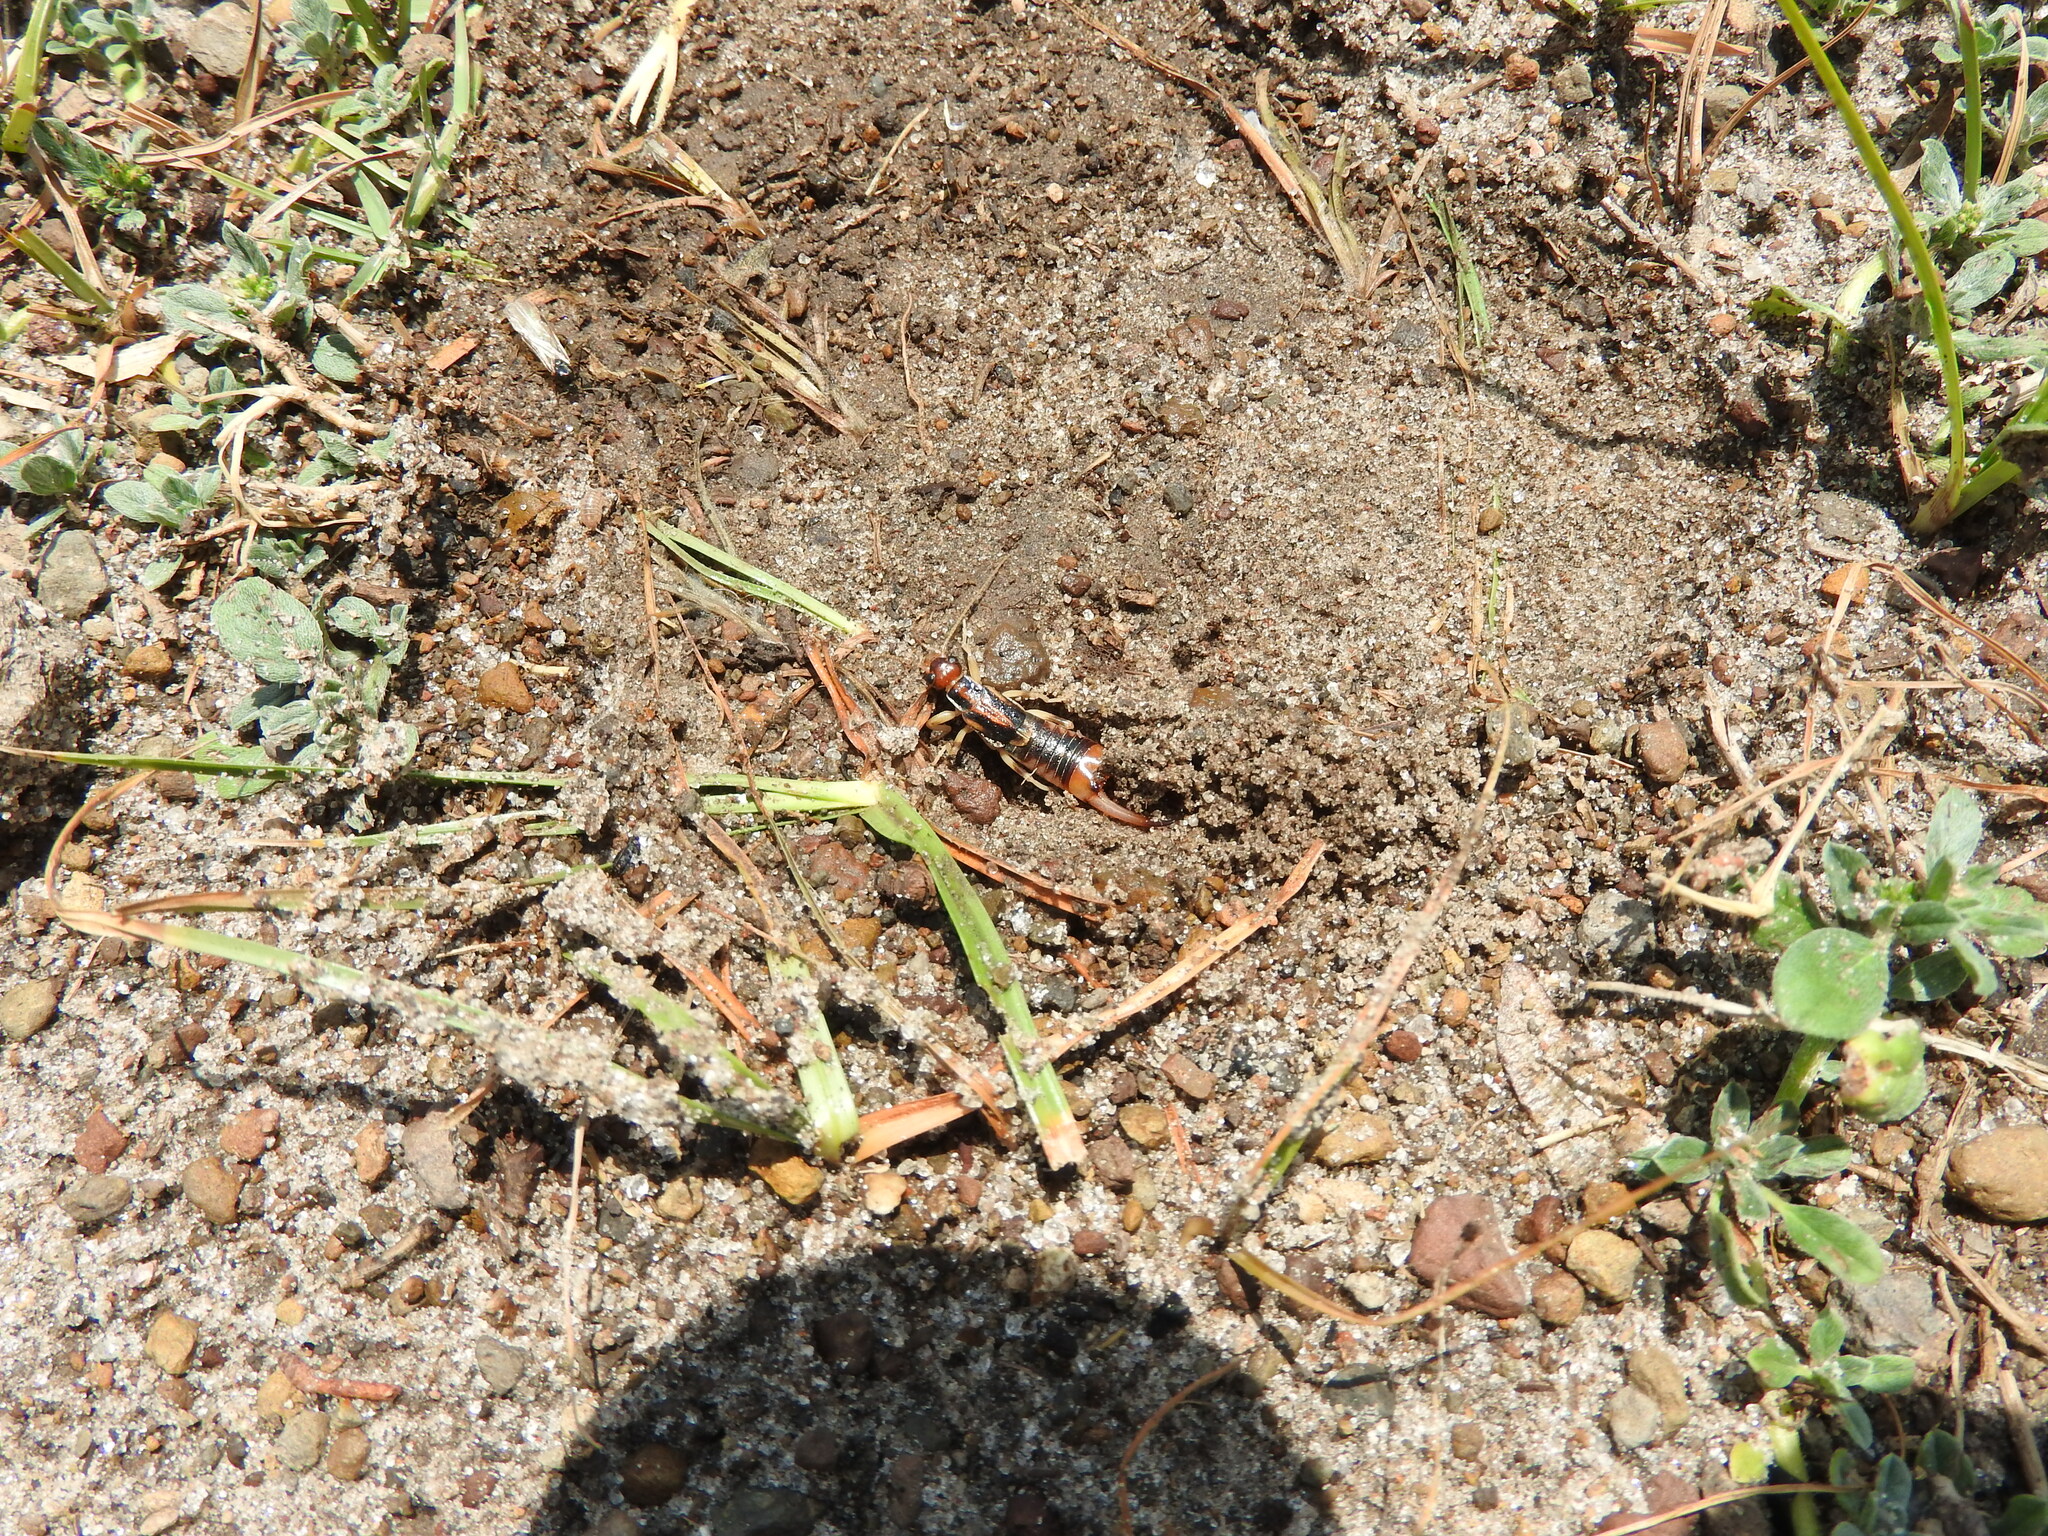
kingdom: Animalia
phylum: Arthropoda
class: Insecta
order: Dermaptera
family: Labiduridae
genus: Labidura
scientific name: Labidura riparia
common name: Striped earwig
